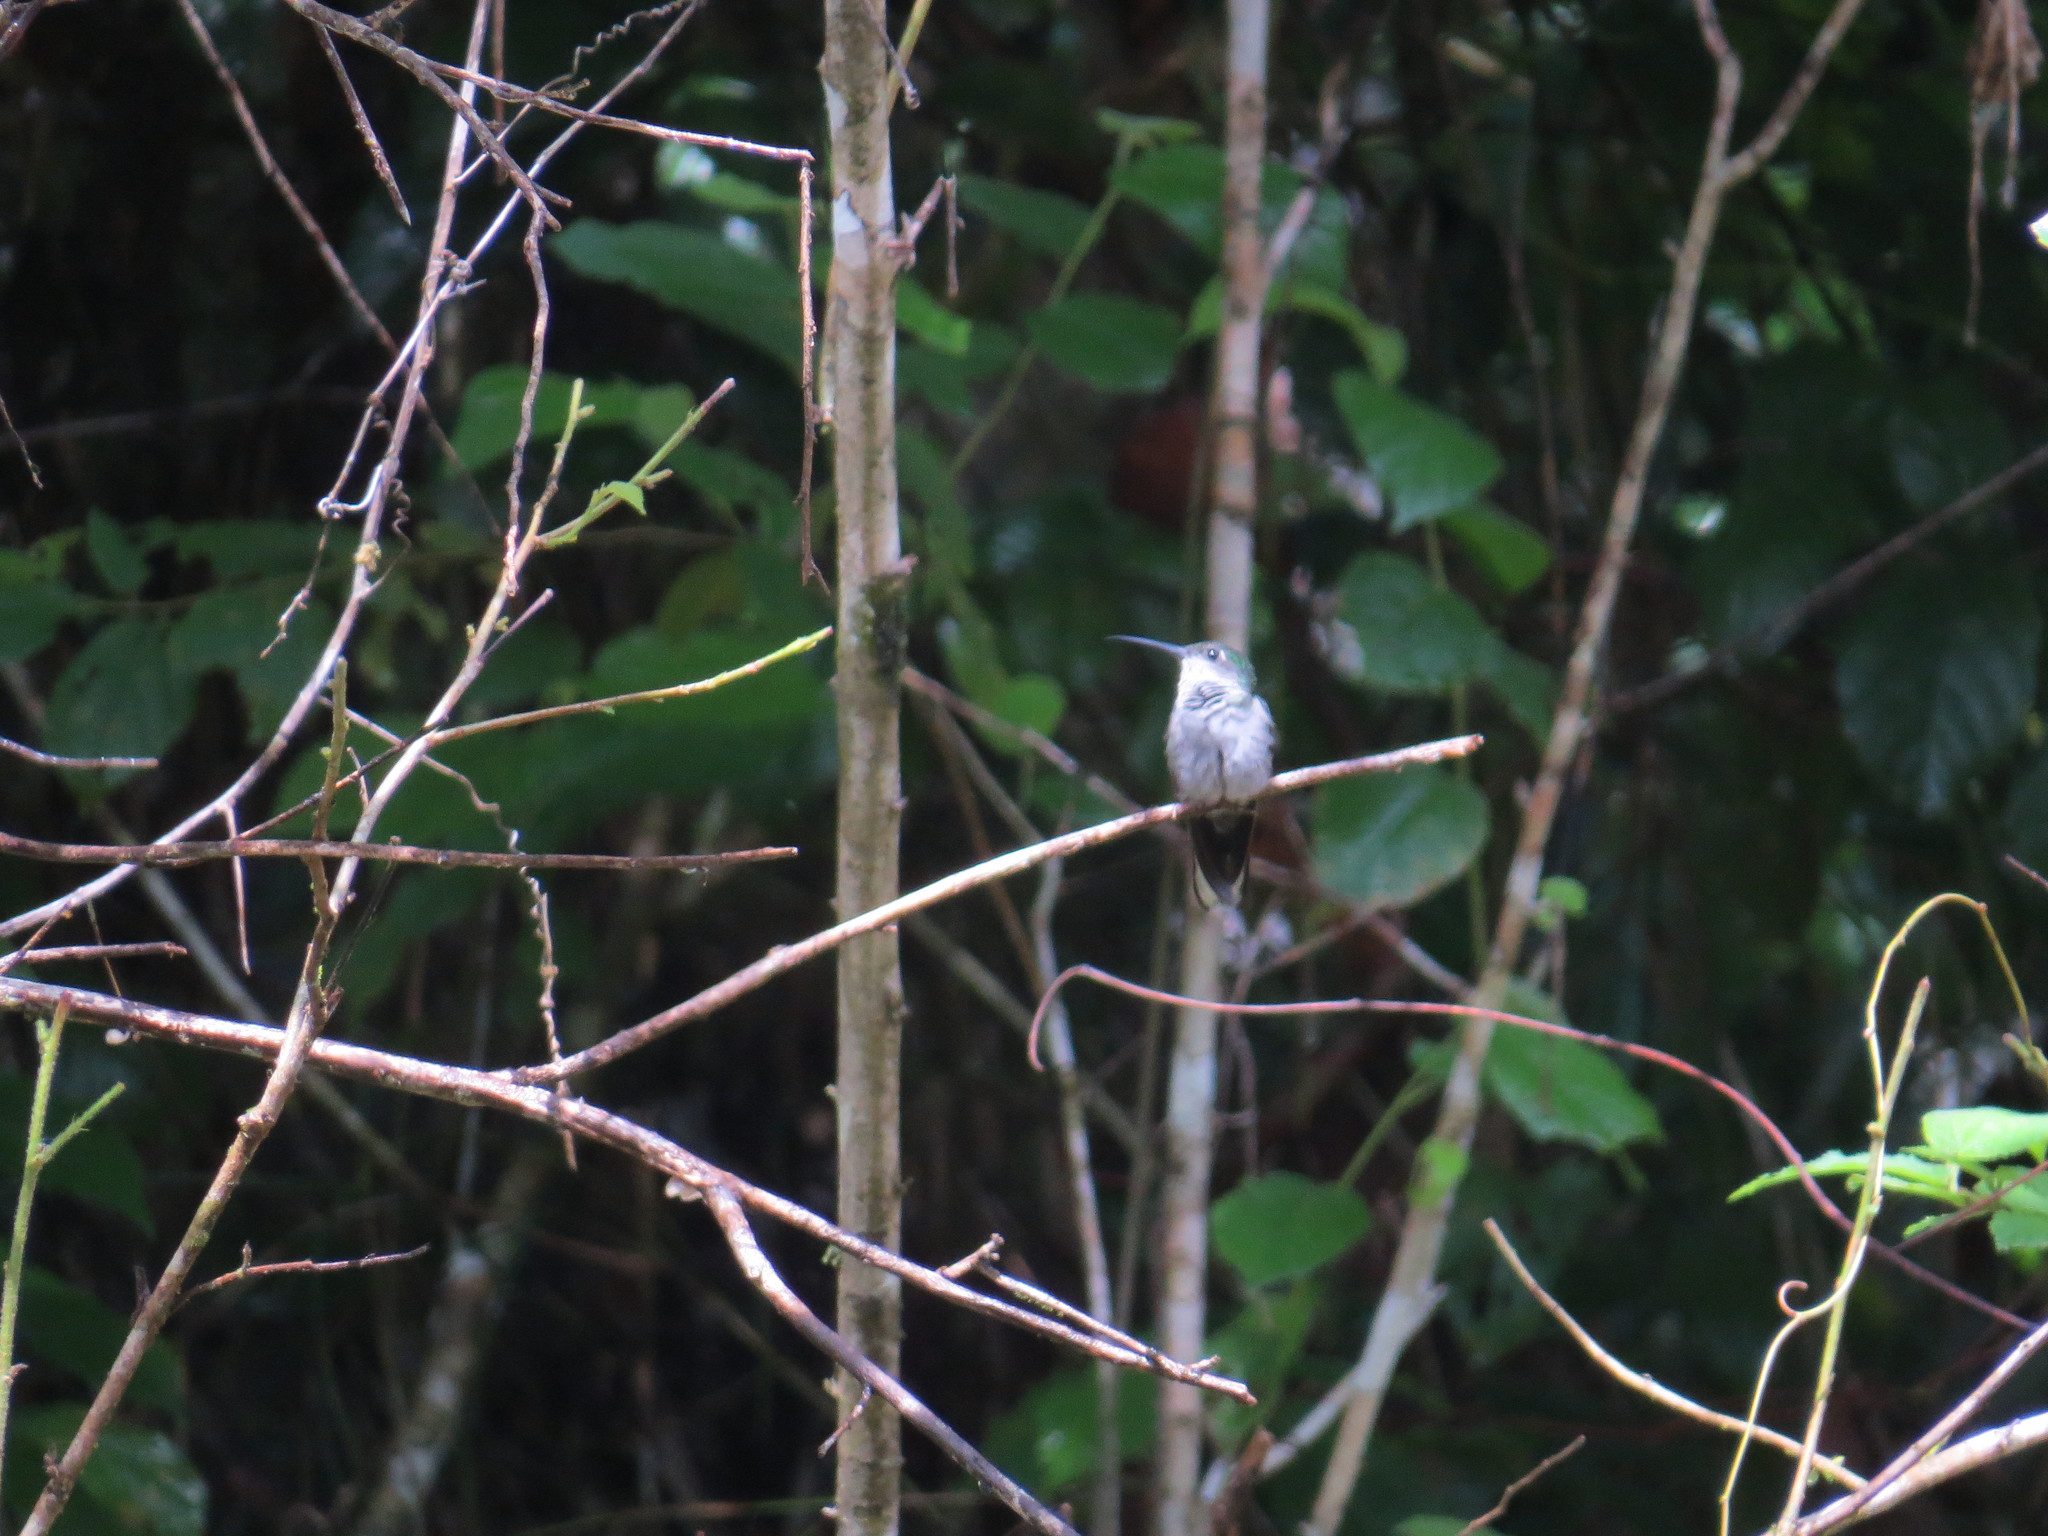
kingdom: Animalia
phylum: Chordata
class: Aves
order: Apodiformes
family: Trochilidae
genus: Thalurania
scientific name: Thalurania furcata
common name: Fork-tailed woodnymph
